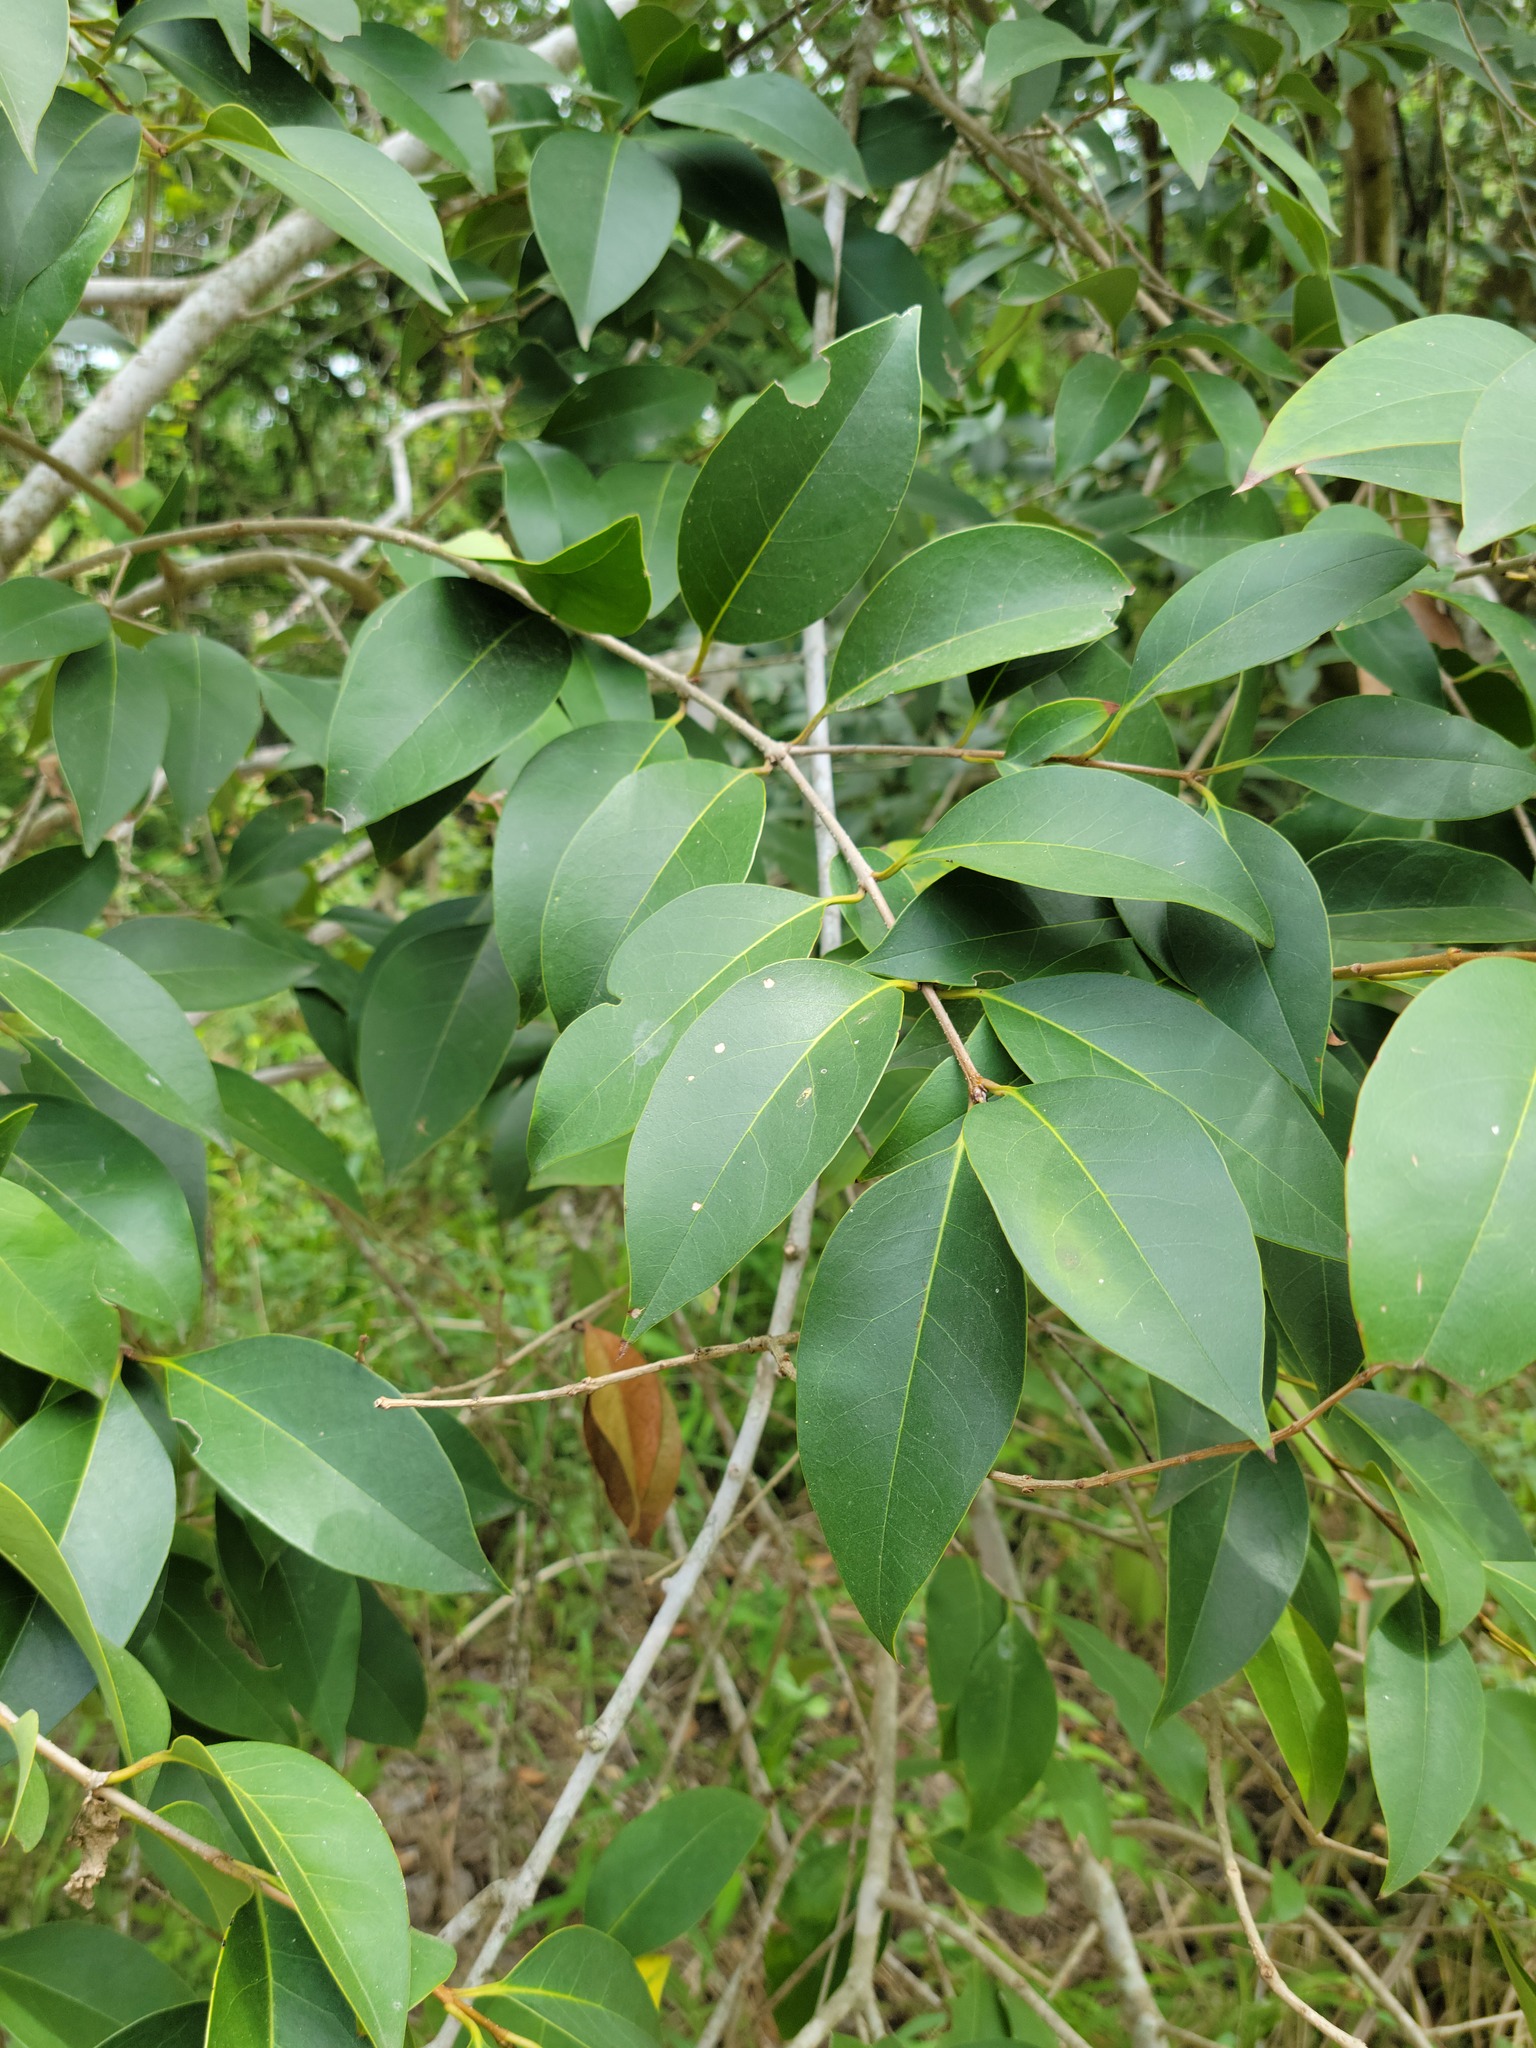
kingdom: Plantae
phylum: Tracheophyta
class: Magnoliopsida
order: Lamiales
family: Oleaceae
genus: Ligustrum
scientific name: Ligustrum lucidum
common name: Glossy privet
